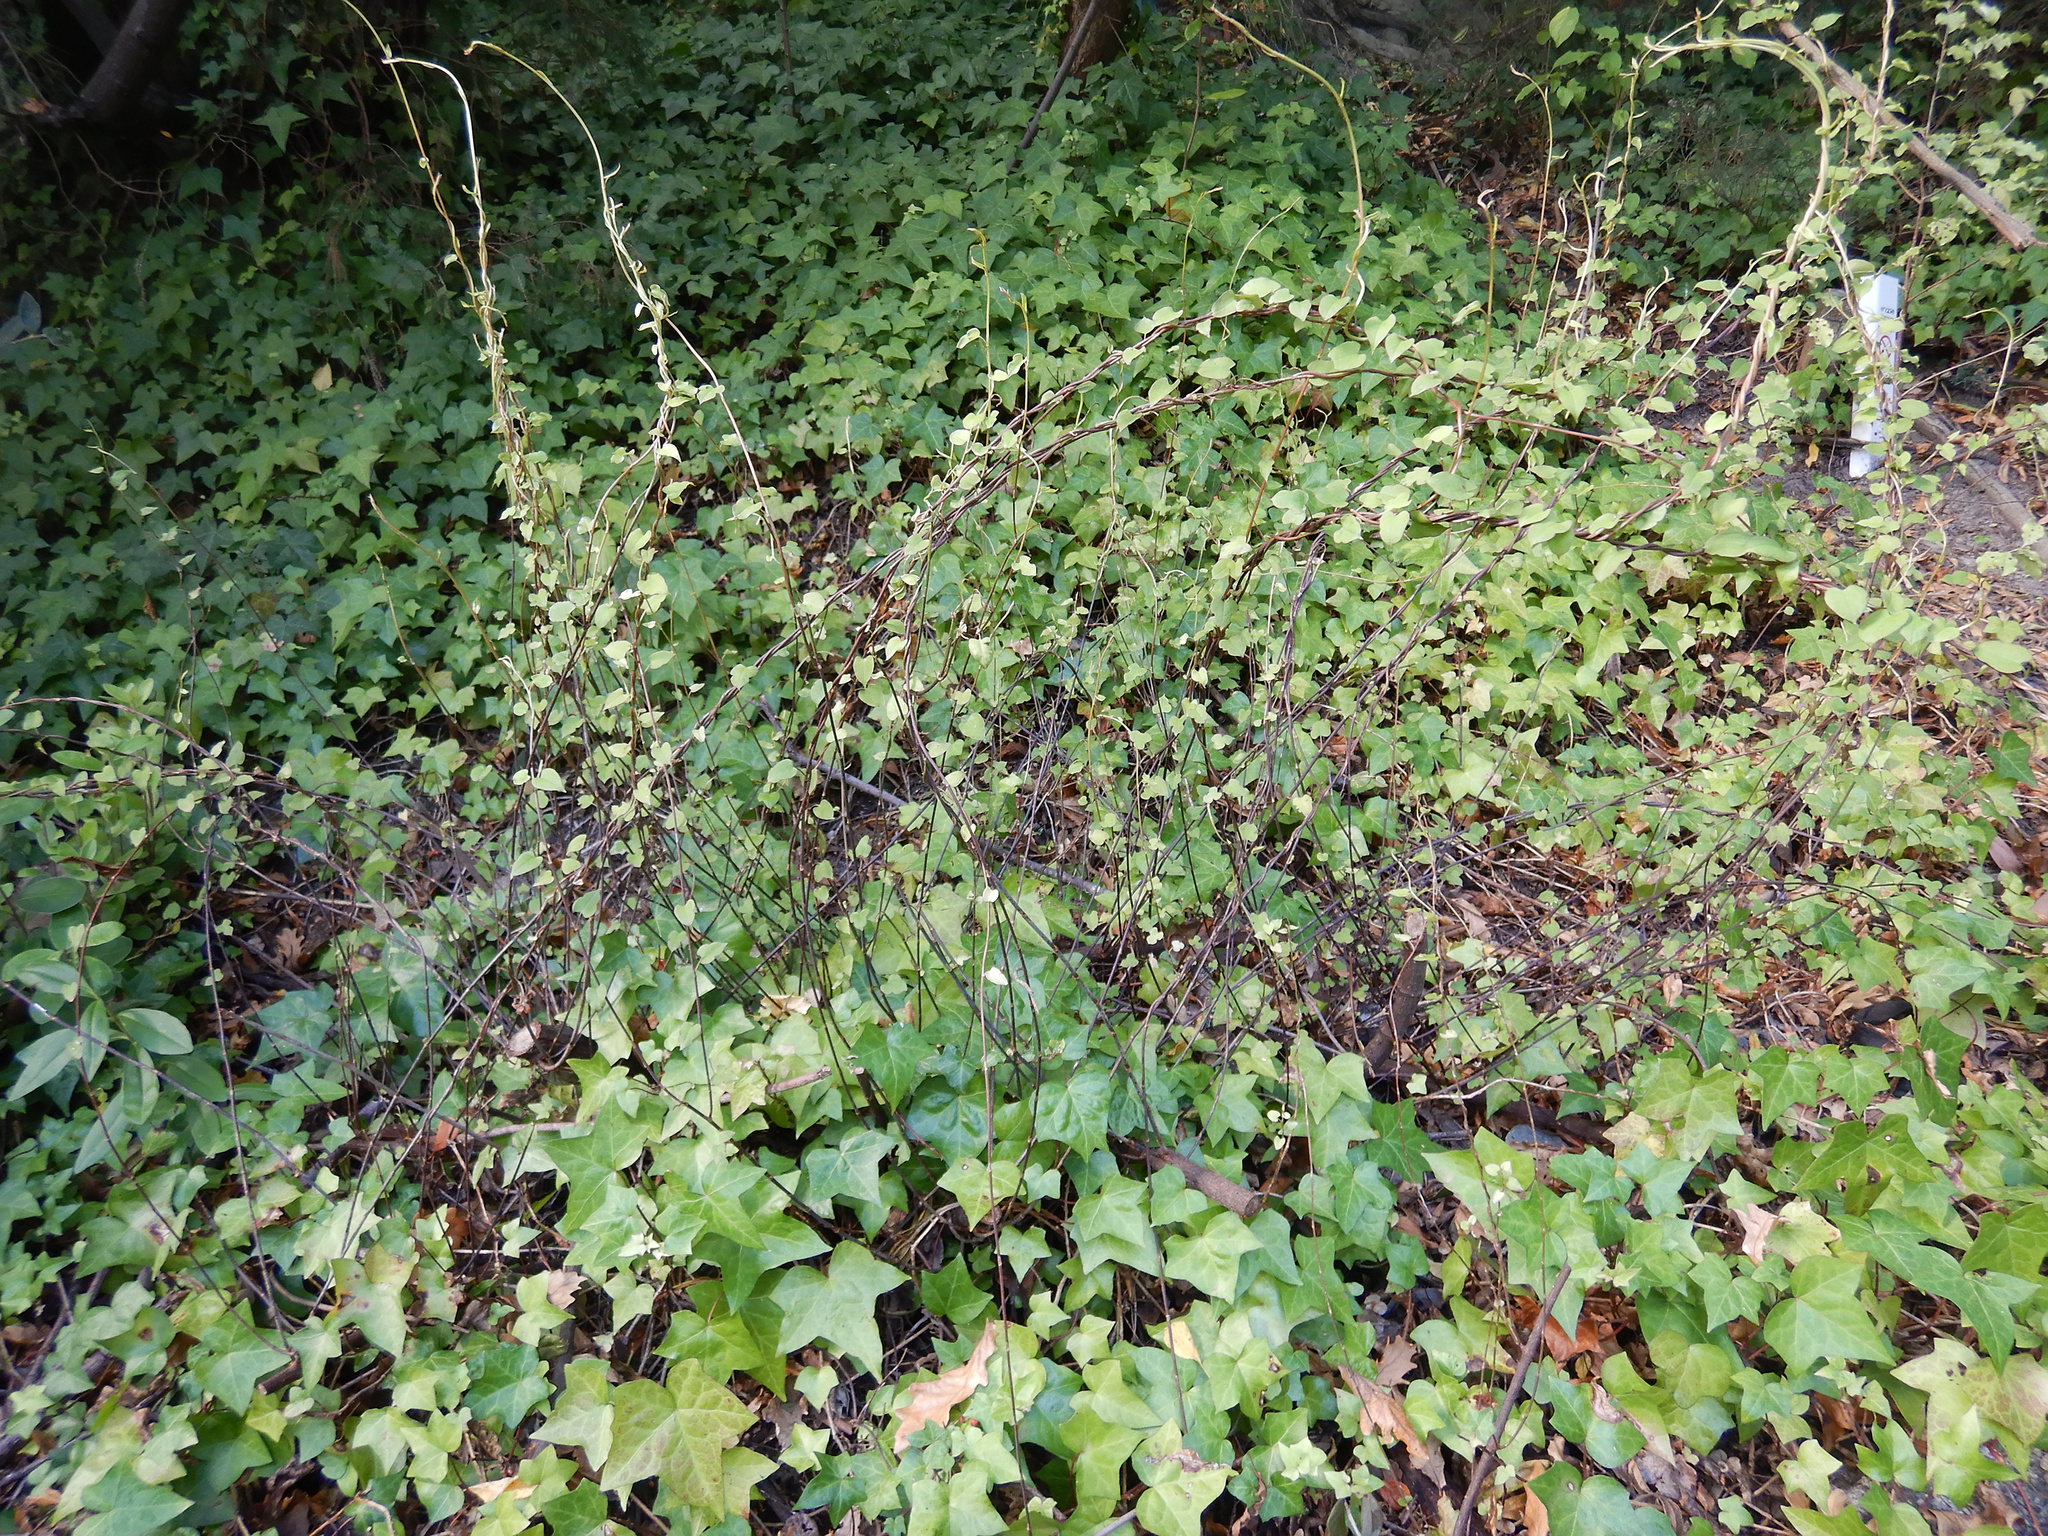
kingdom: Plantae
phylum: Tracheophyta
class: Magnoliopsida
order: Caryophyllales
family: Polygonaceae
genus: Muehlenbeckia
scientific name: Muehlenbeckia australis
